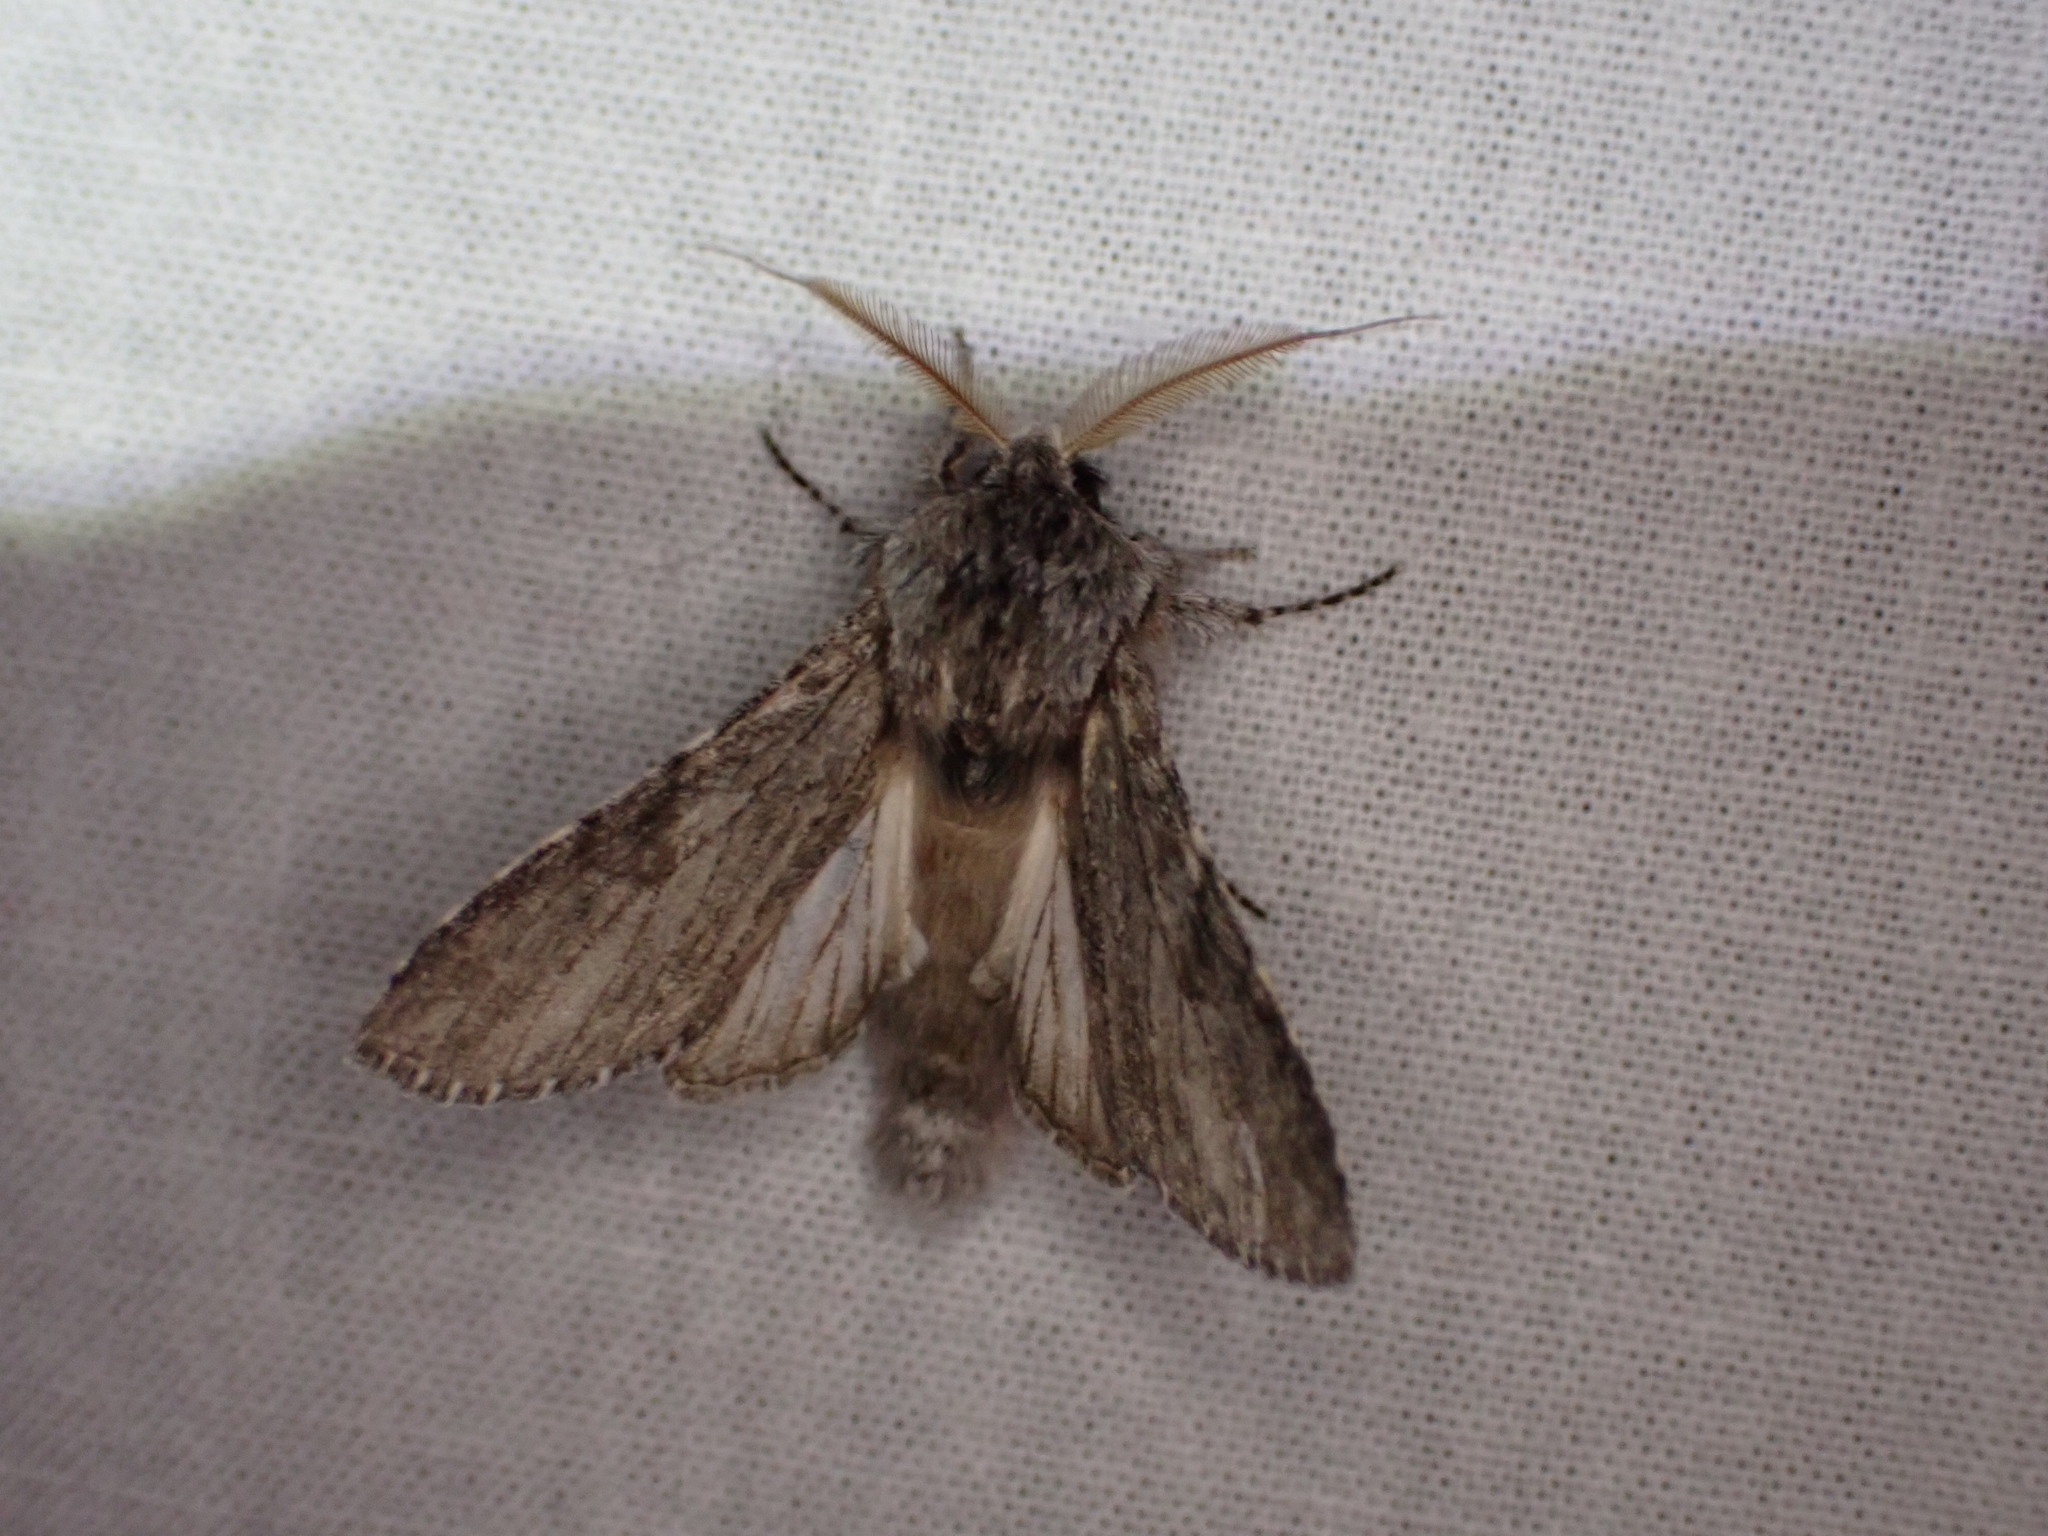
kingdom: Animalia
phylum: Arthropoda
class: Insecta
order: Lepidoptera
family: Notodontidae
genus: Dicranura
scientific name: Dicranura ulmi
